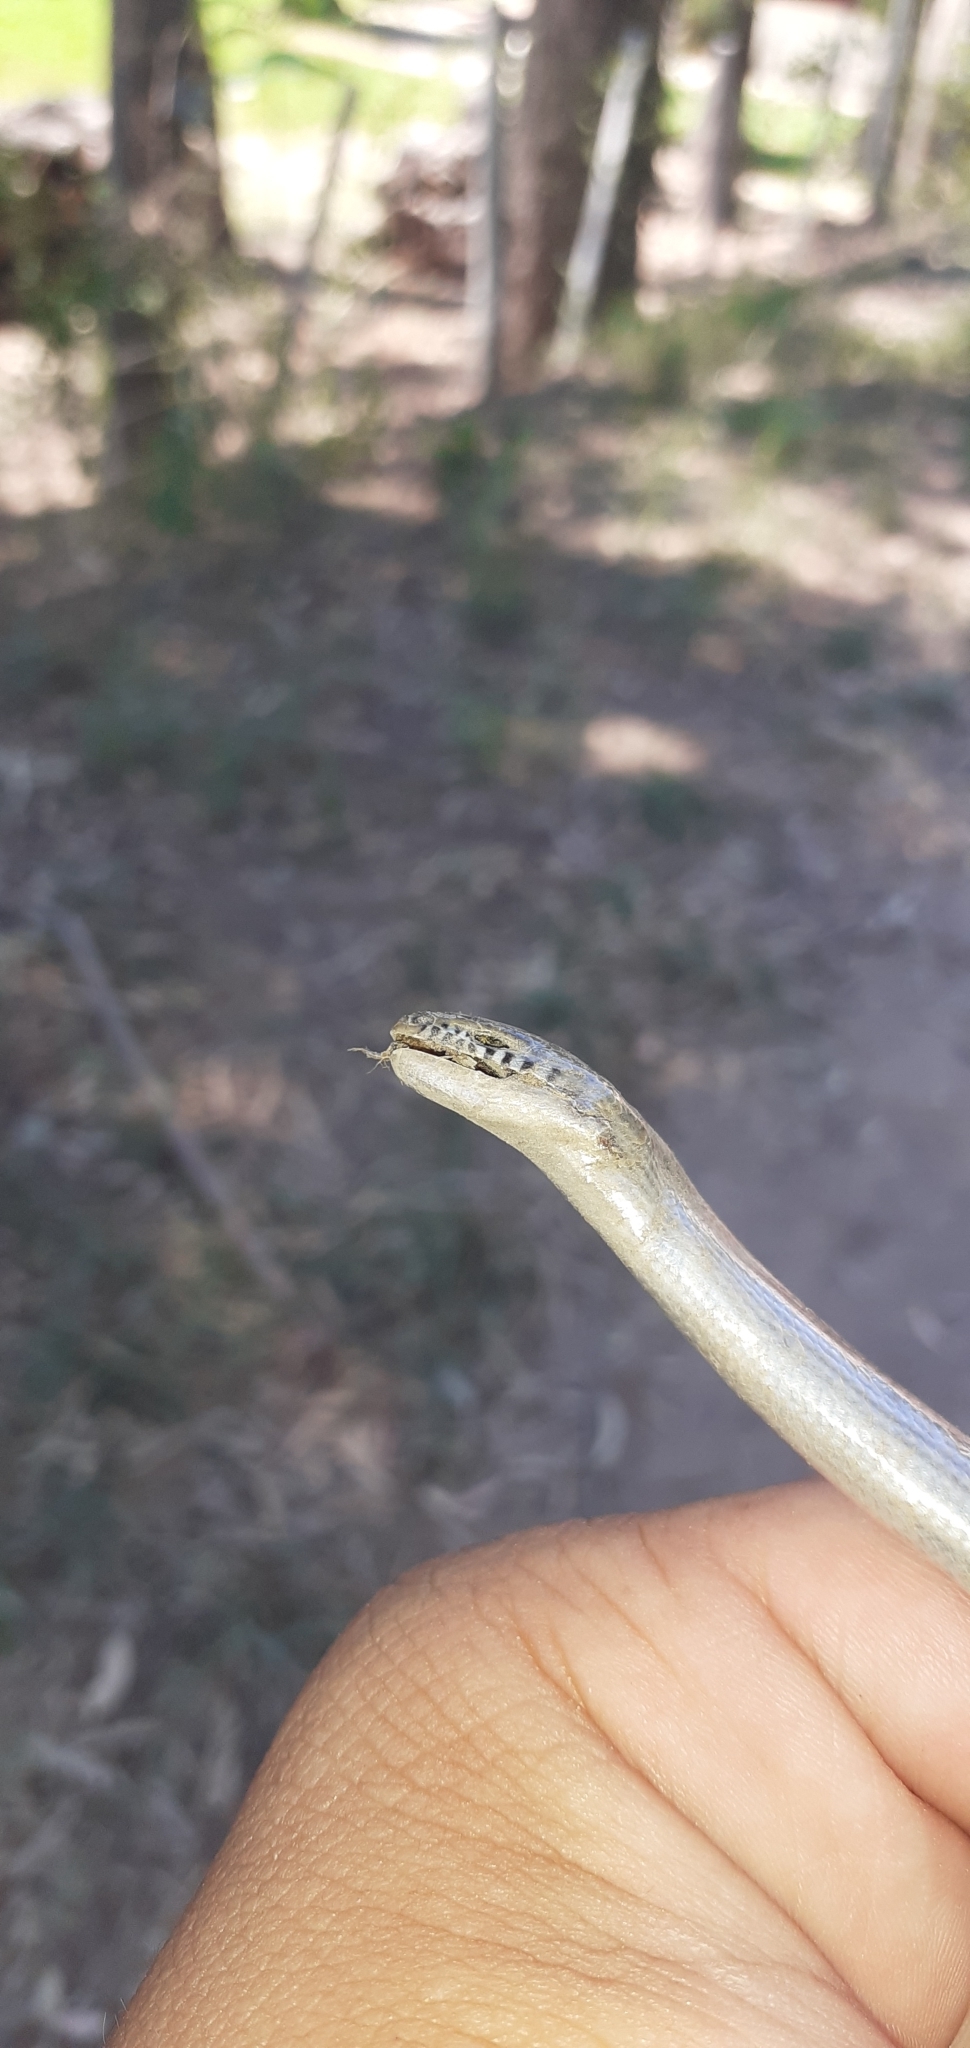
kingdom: Animalia
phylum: Chordata
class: Squamata
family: Diploglossidae
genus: Ophiodes
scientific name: Ophiodes intermedius
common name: Middle worm lizard
